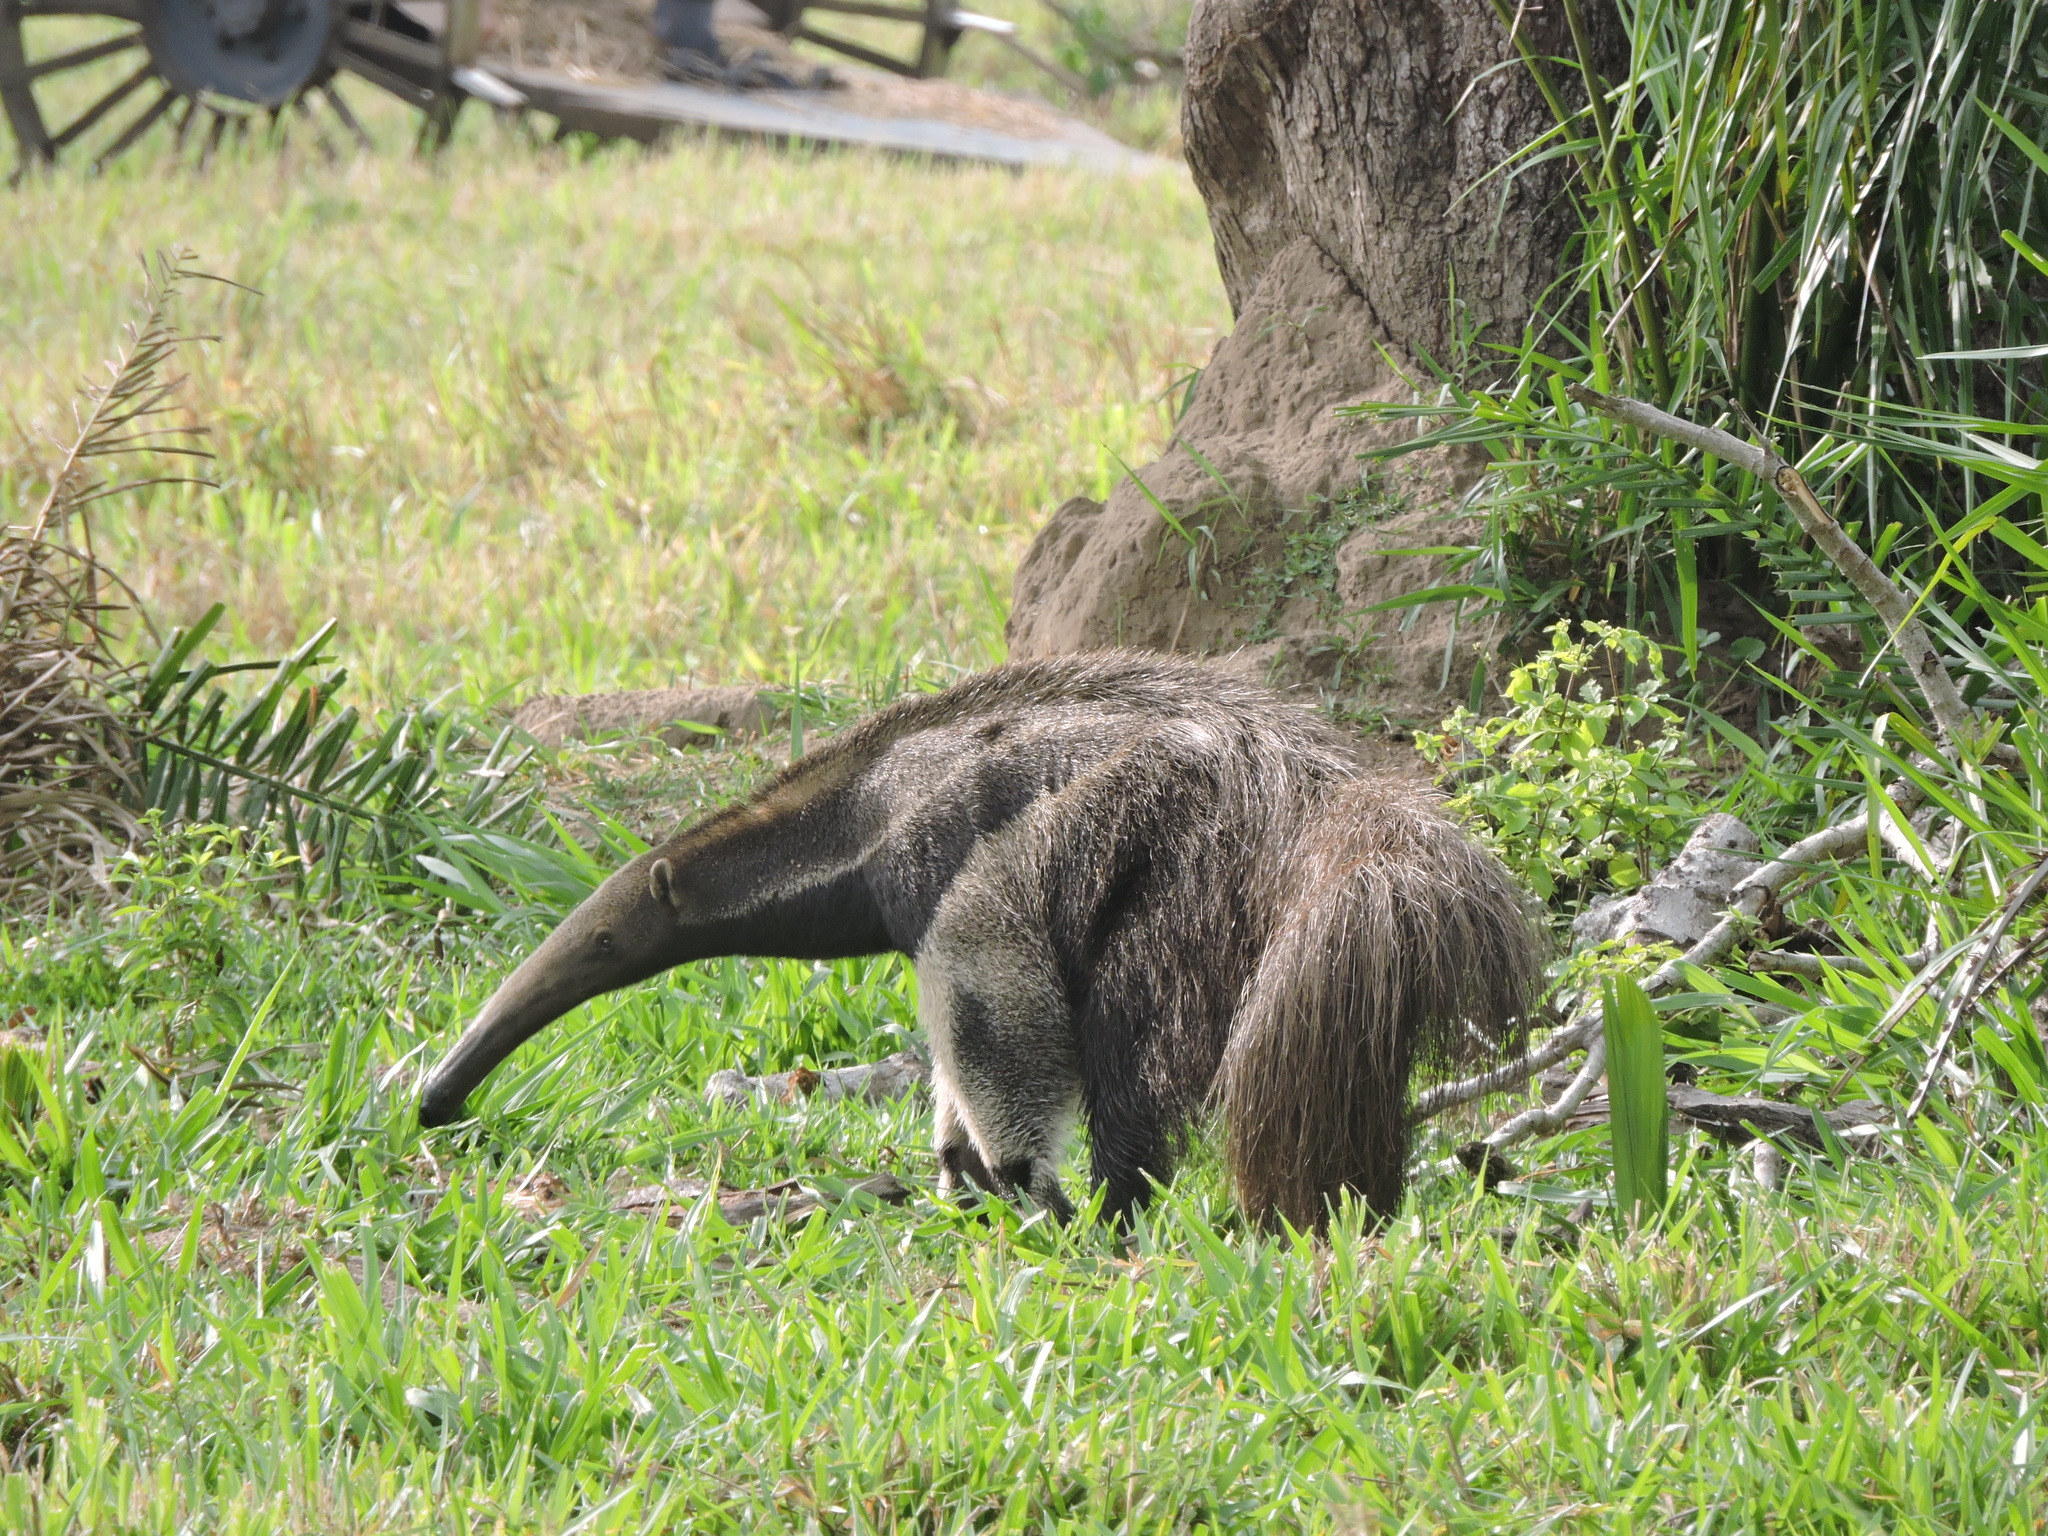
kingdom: Animalia
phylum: Chordata
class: Mammalia
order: Pilosa
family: Myrmecophagidae
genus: Myrmecophaga
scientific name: Myrmecophaga tridactyla
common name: Giant anteater
